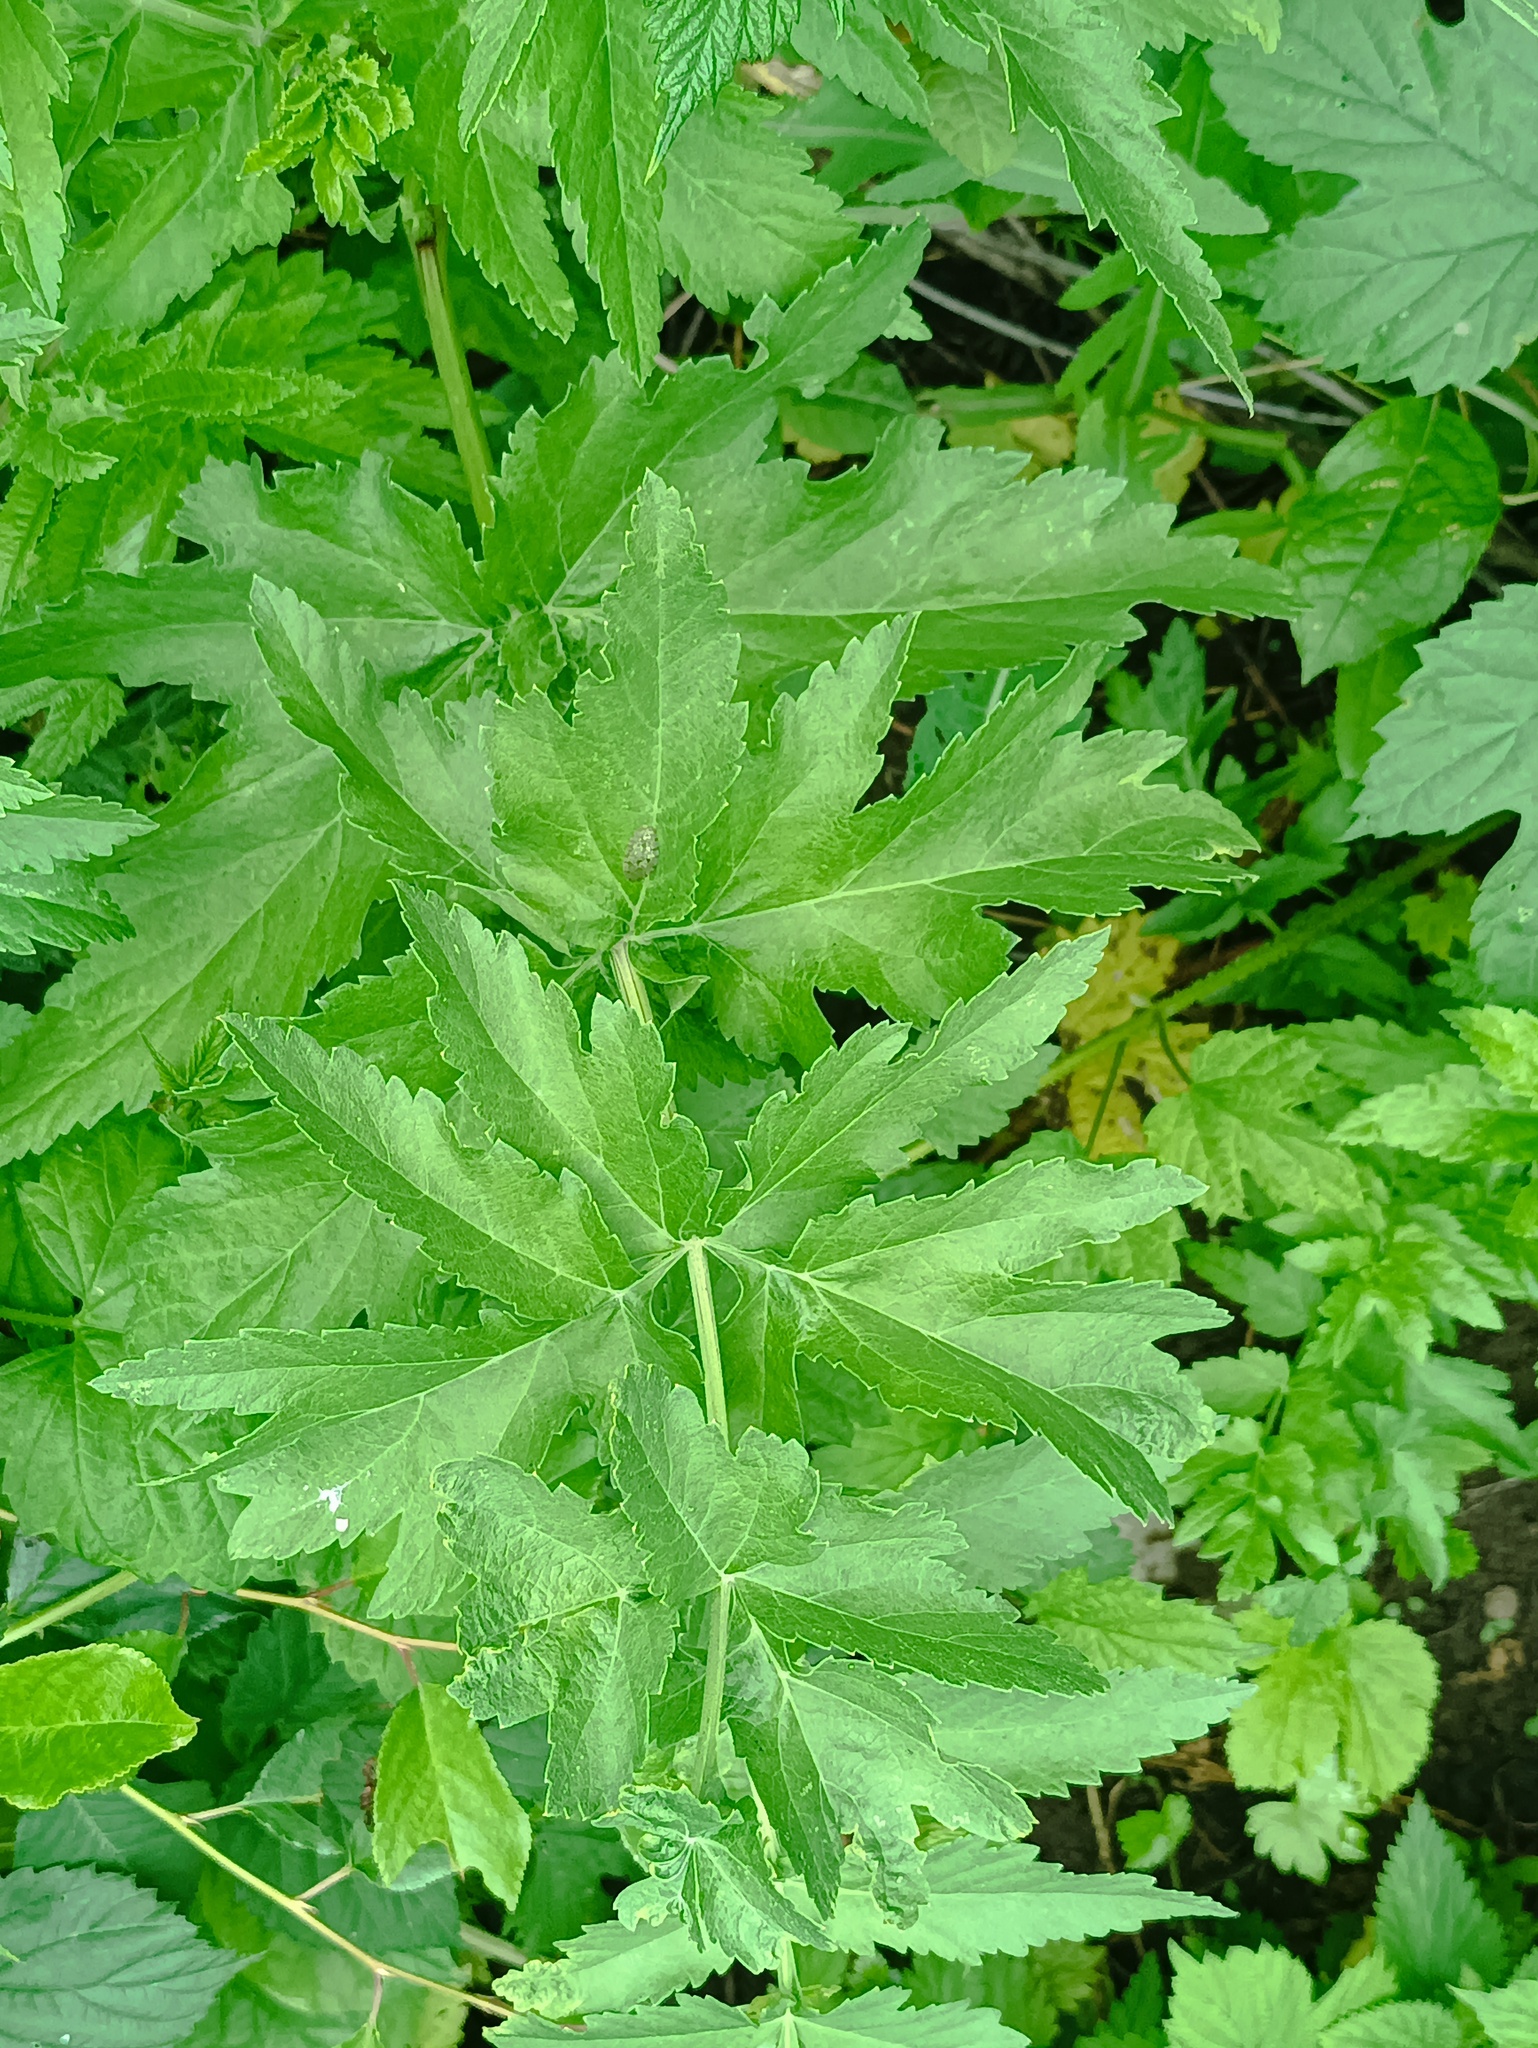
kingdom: Plantae
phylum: Tracheophyta
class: Magnoliopsida
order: Apiales
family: Apiaceae
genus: Pastinaca
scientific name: Pastinaca sativa
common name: Wild parsnip
